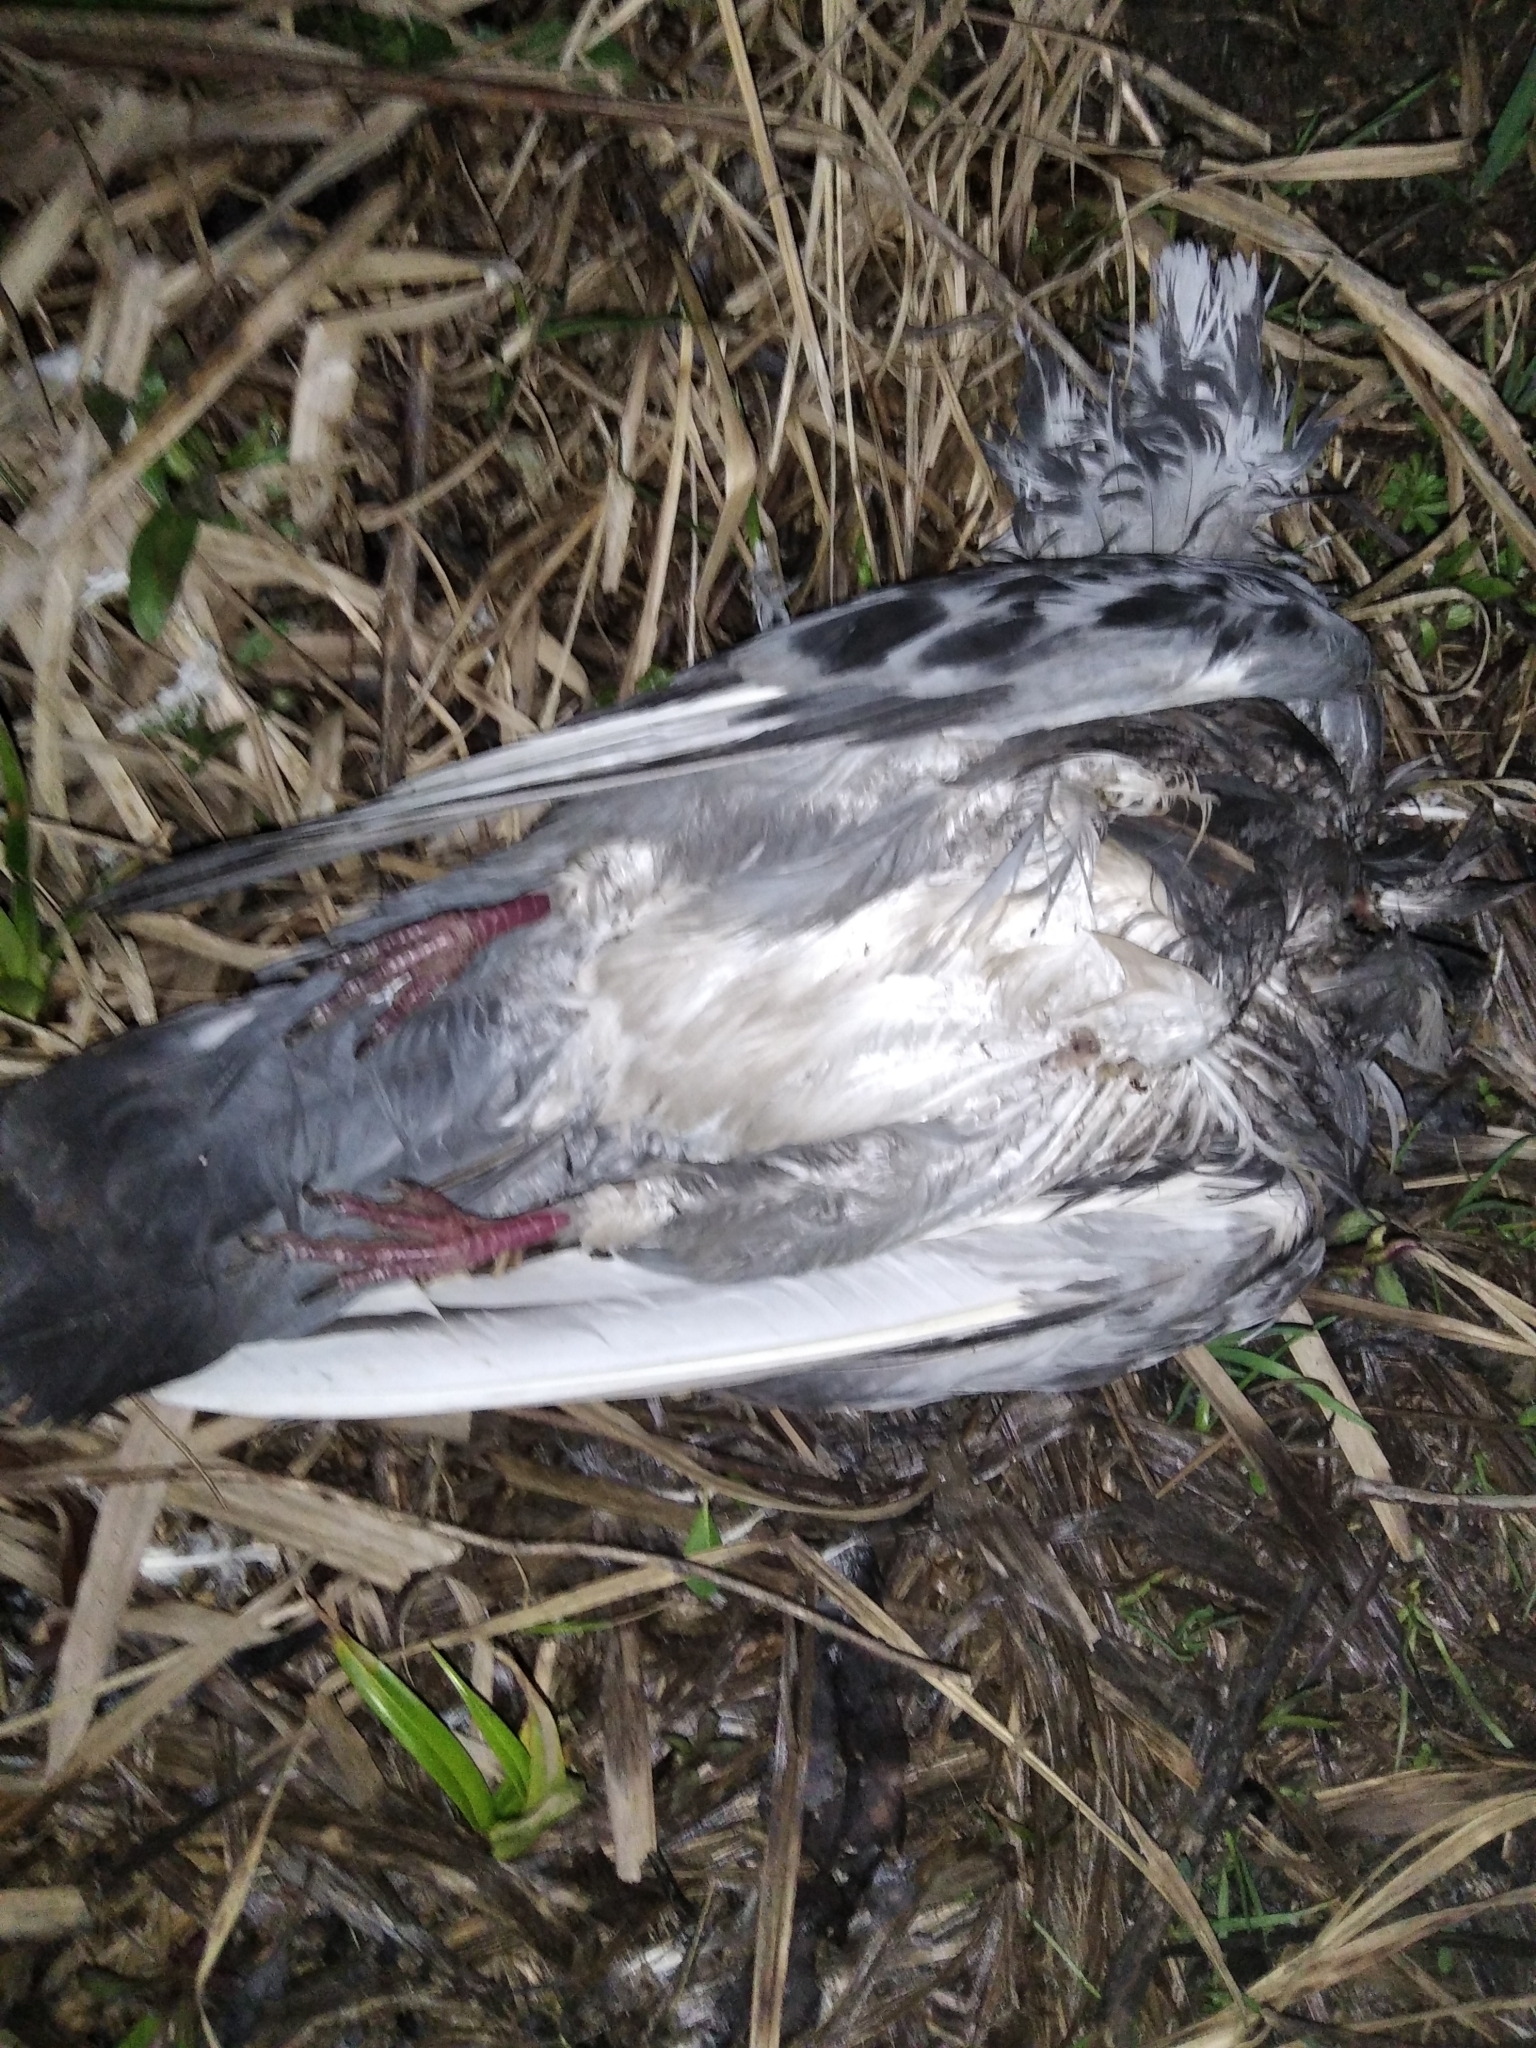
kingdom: Animalia
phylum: Chordata
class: Aves
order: Columbiformes
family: Columbidae
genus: Columba
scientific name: Columba livia
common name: Rock pigeon
